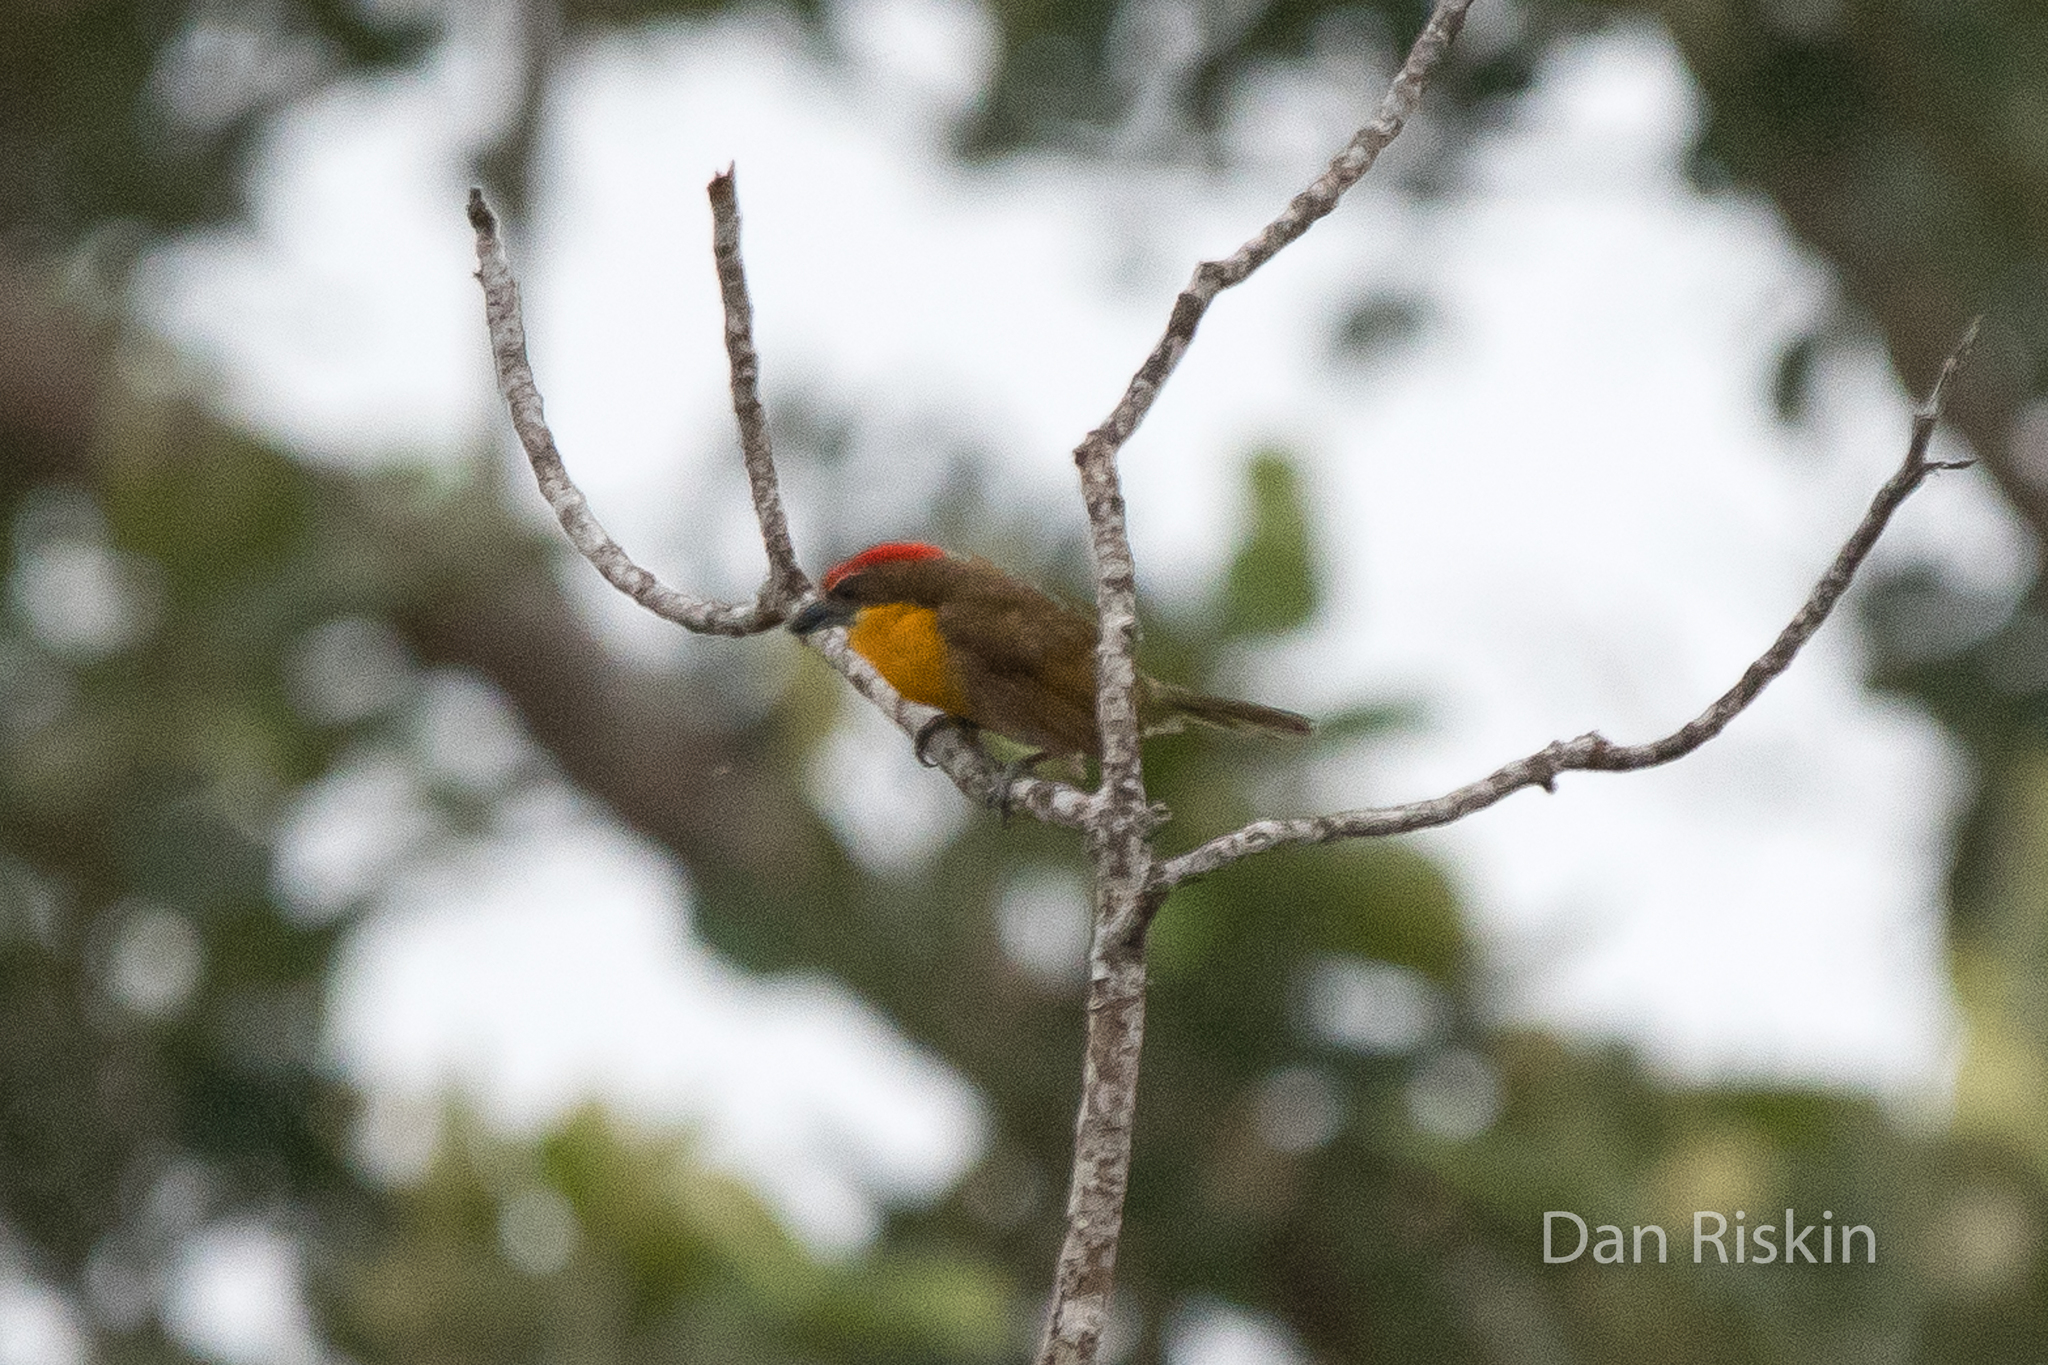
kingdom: Animalia
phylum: Chordata
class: Aves
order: Piciformes
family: Capitonidae
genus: Capito
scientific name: Capito aurovirens
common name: Scarlet-crowned barbet
